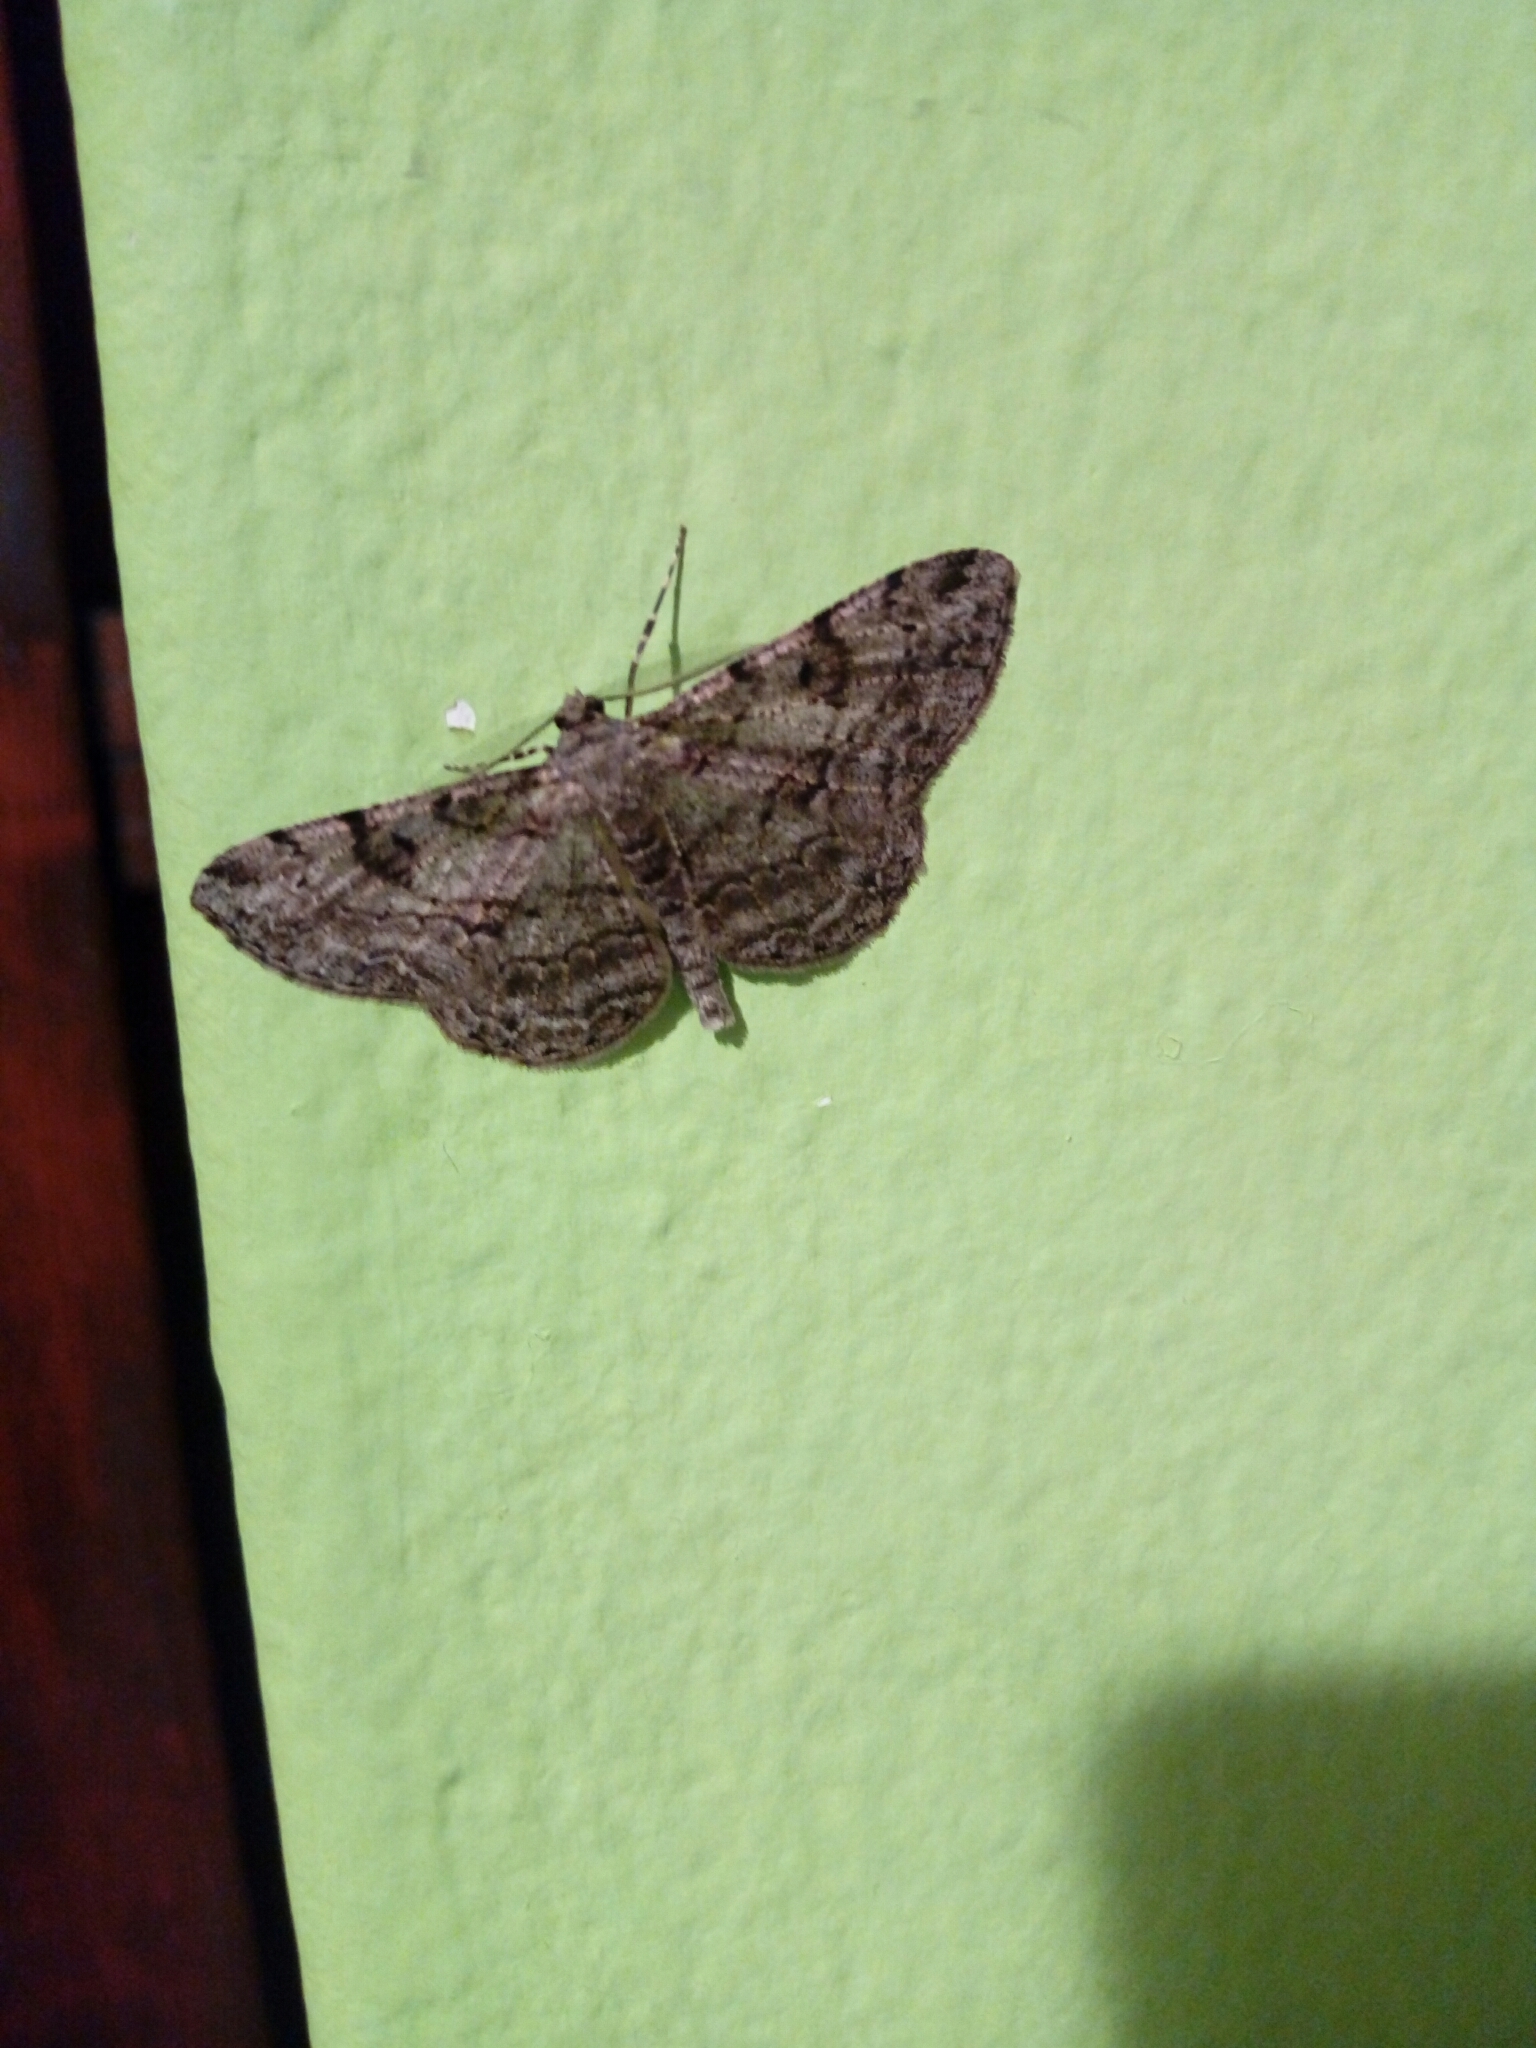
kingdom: Animalia
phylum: Arthropoda
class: Insecta
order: Lepidoptera
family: Geometridae
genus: Peribatodes
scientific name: Peribatodes rhomboidaria
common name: Willow beauty
